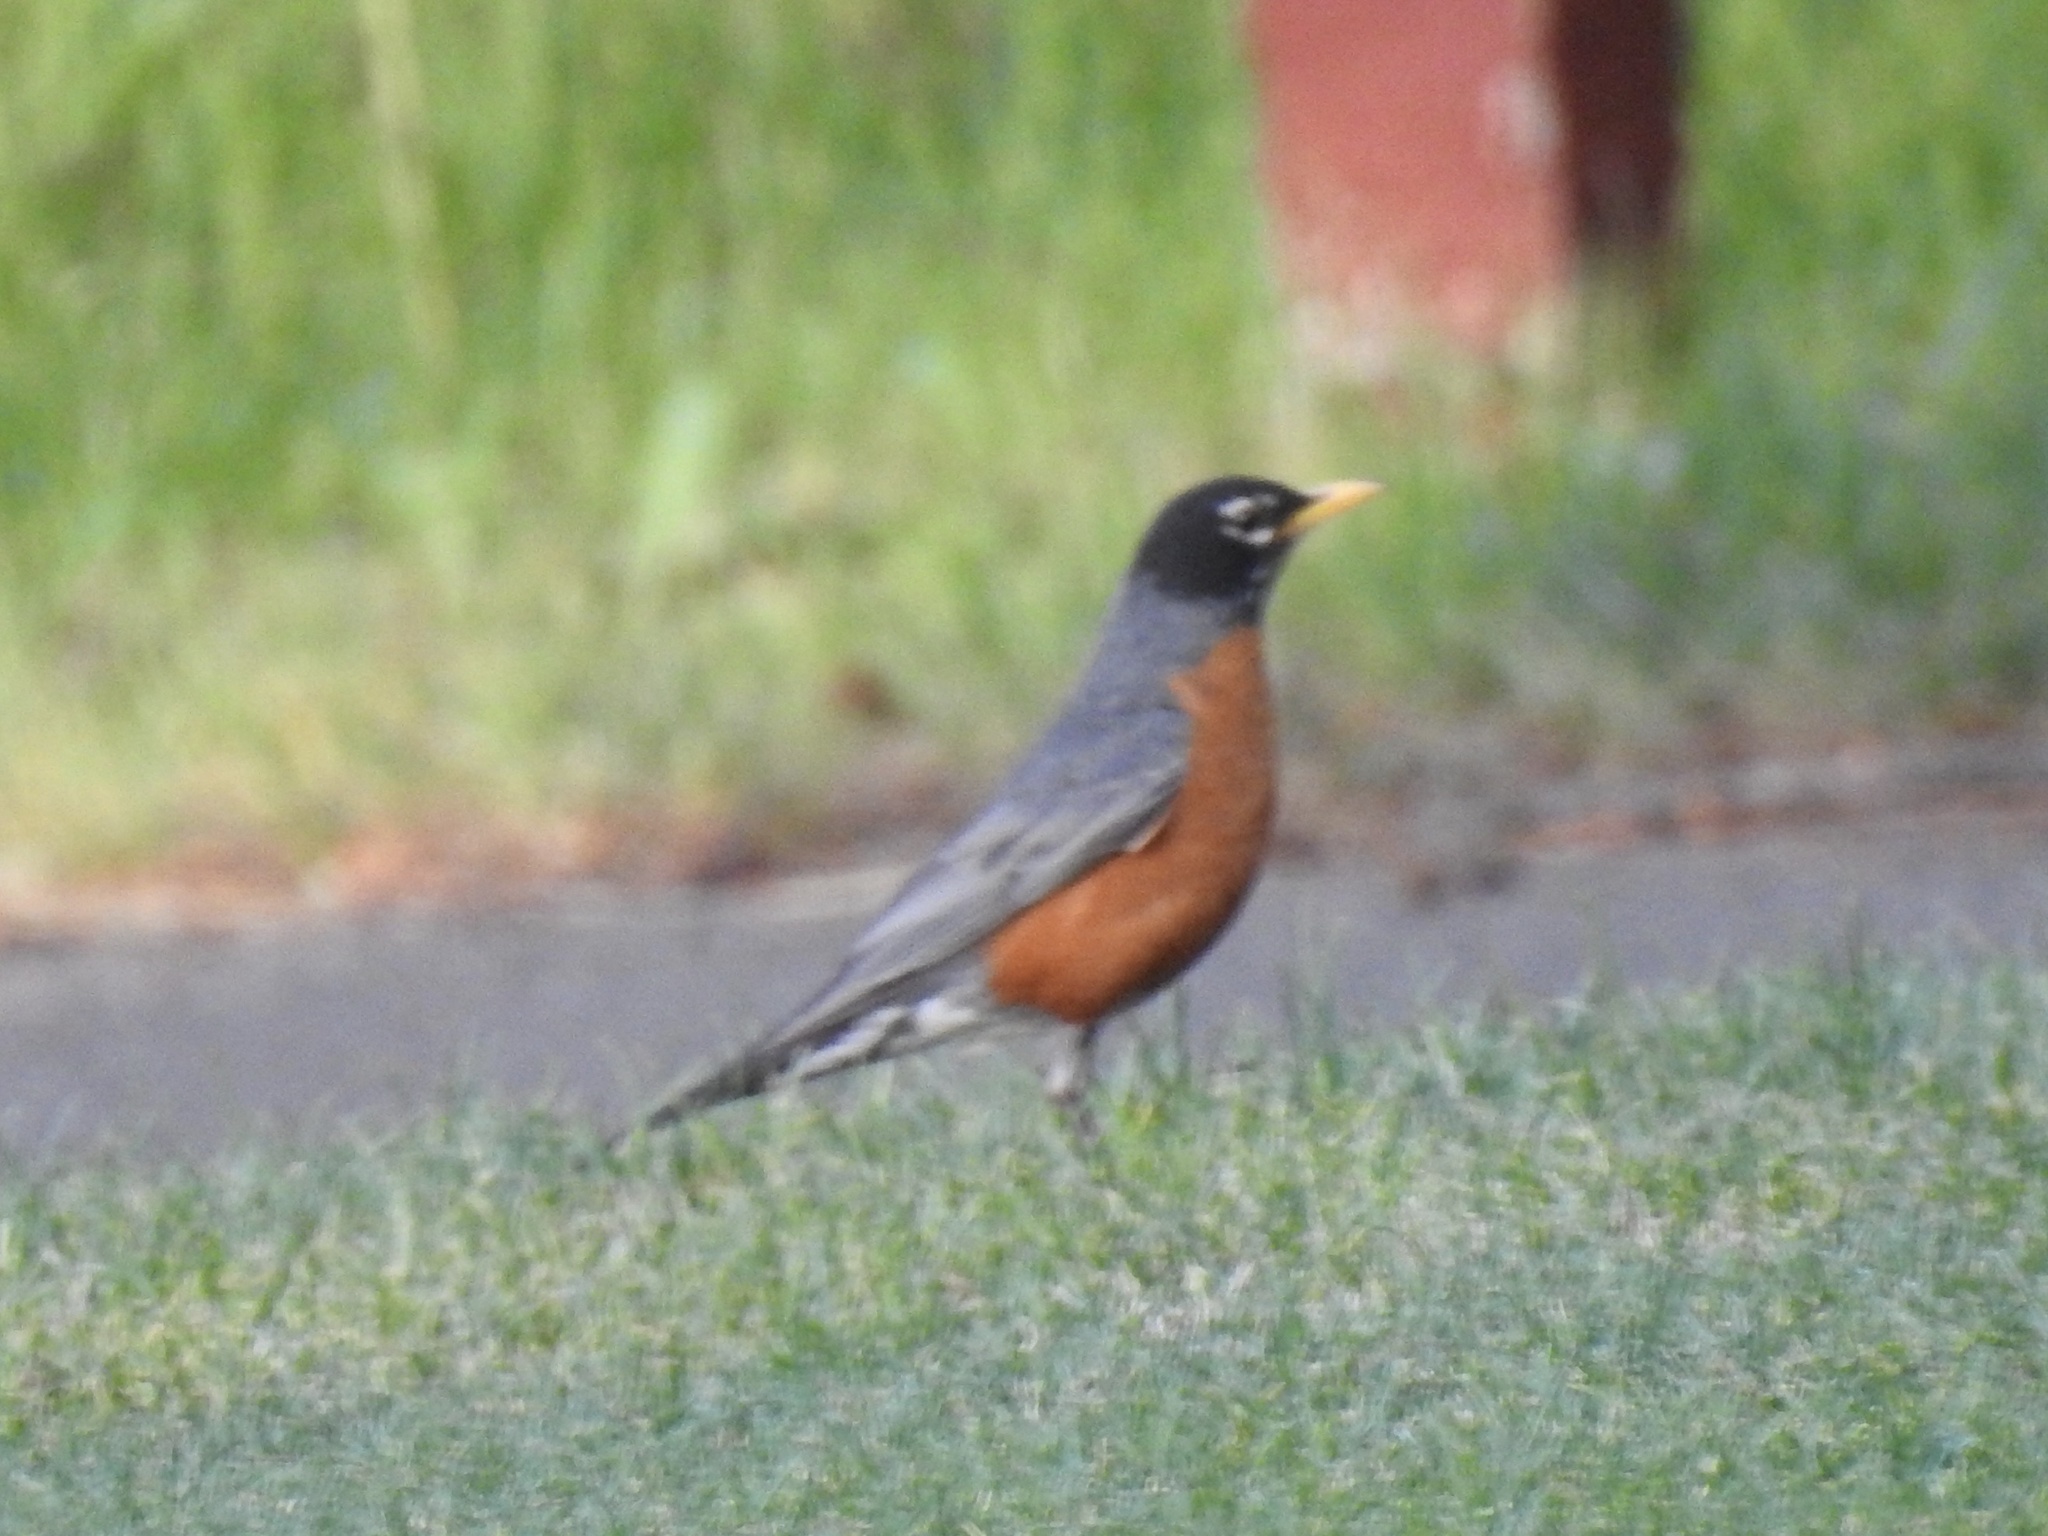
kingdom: Animalia
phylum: Chordata
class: Aves
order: Passeriformes
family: Turdidae
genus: Turdus
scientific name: Turdus migratorius
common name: American robin
